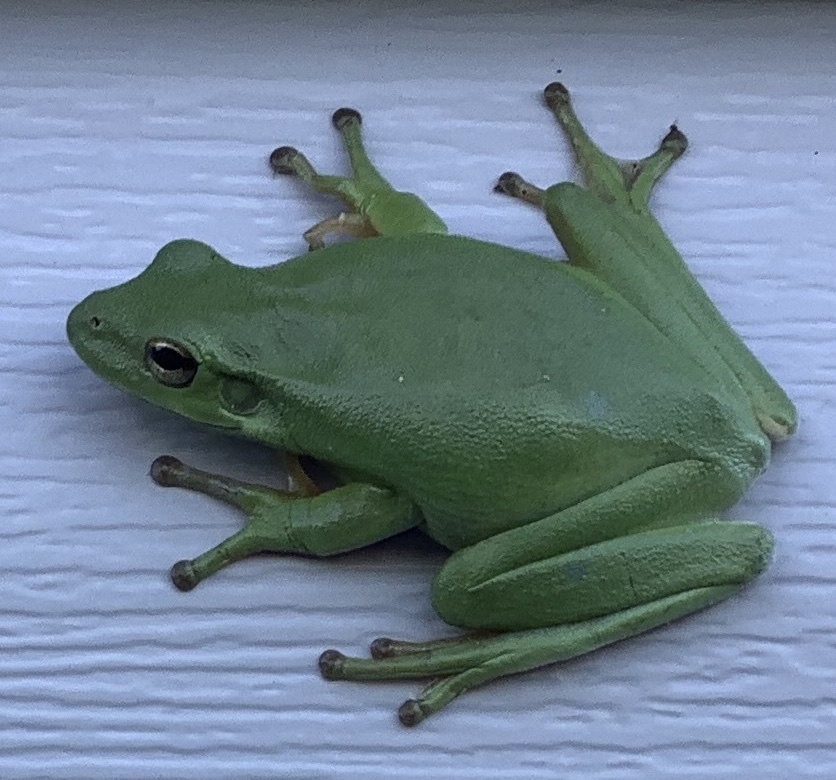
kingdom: Animalia
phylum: Chordata
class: Amphibia
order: Anura
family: Hylidae
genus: Dryophytes
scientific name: Dryophytes cinereus
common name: Green treefrog
